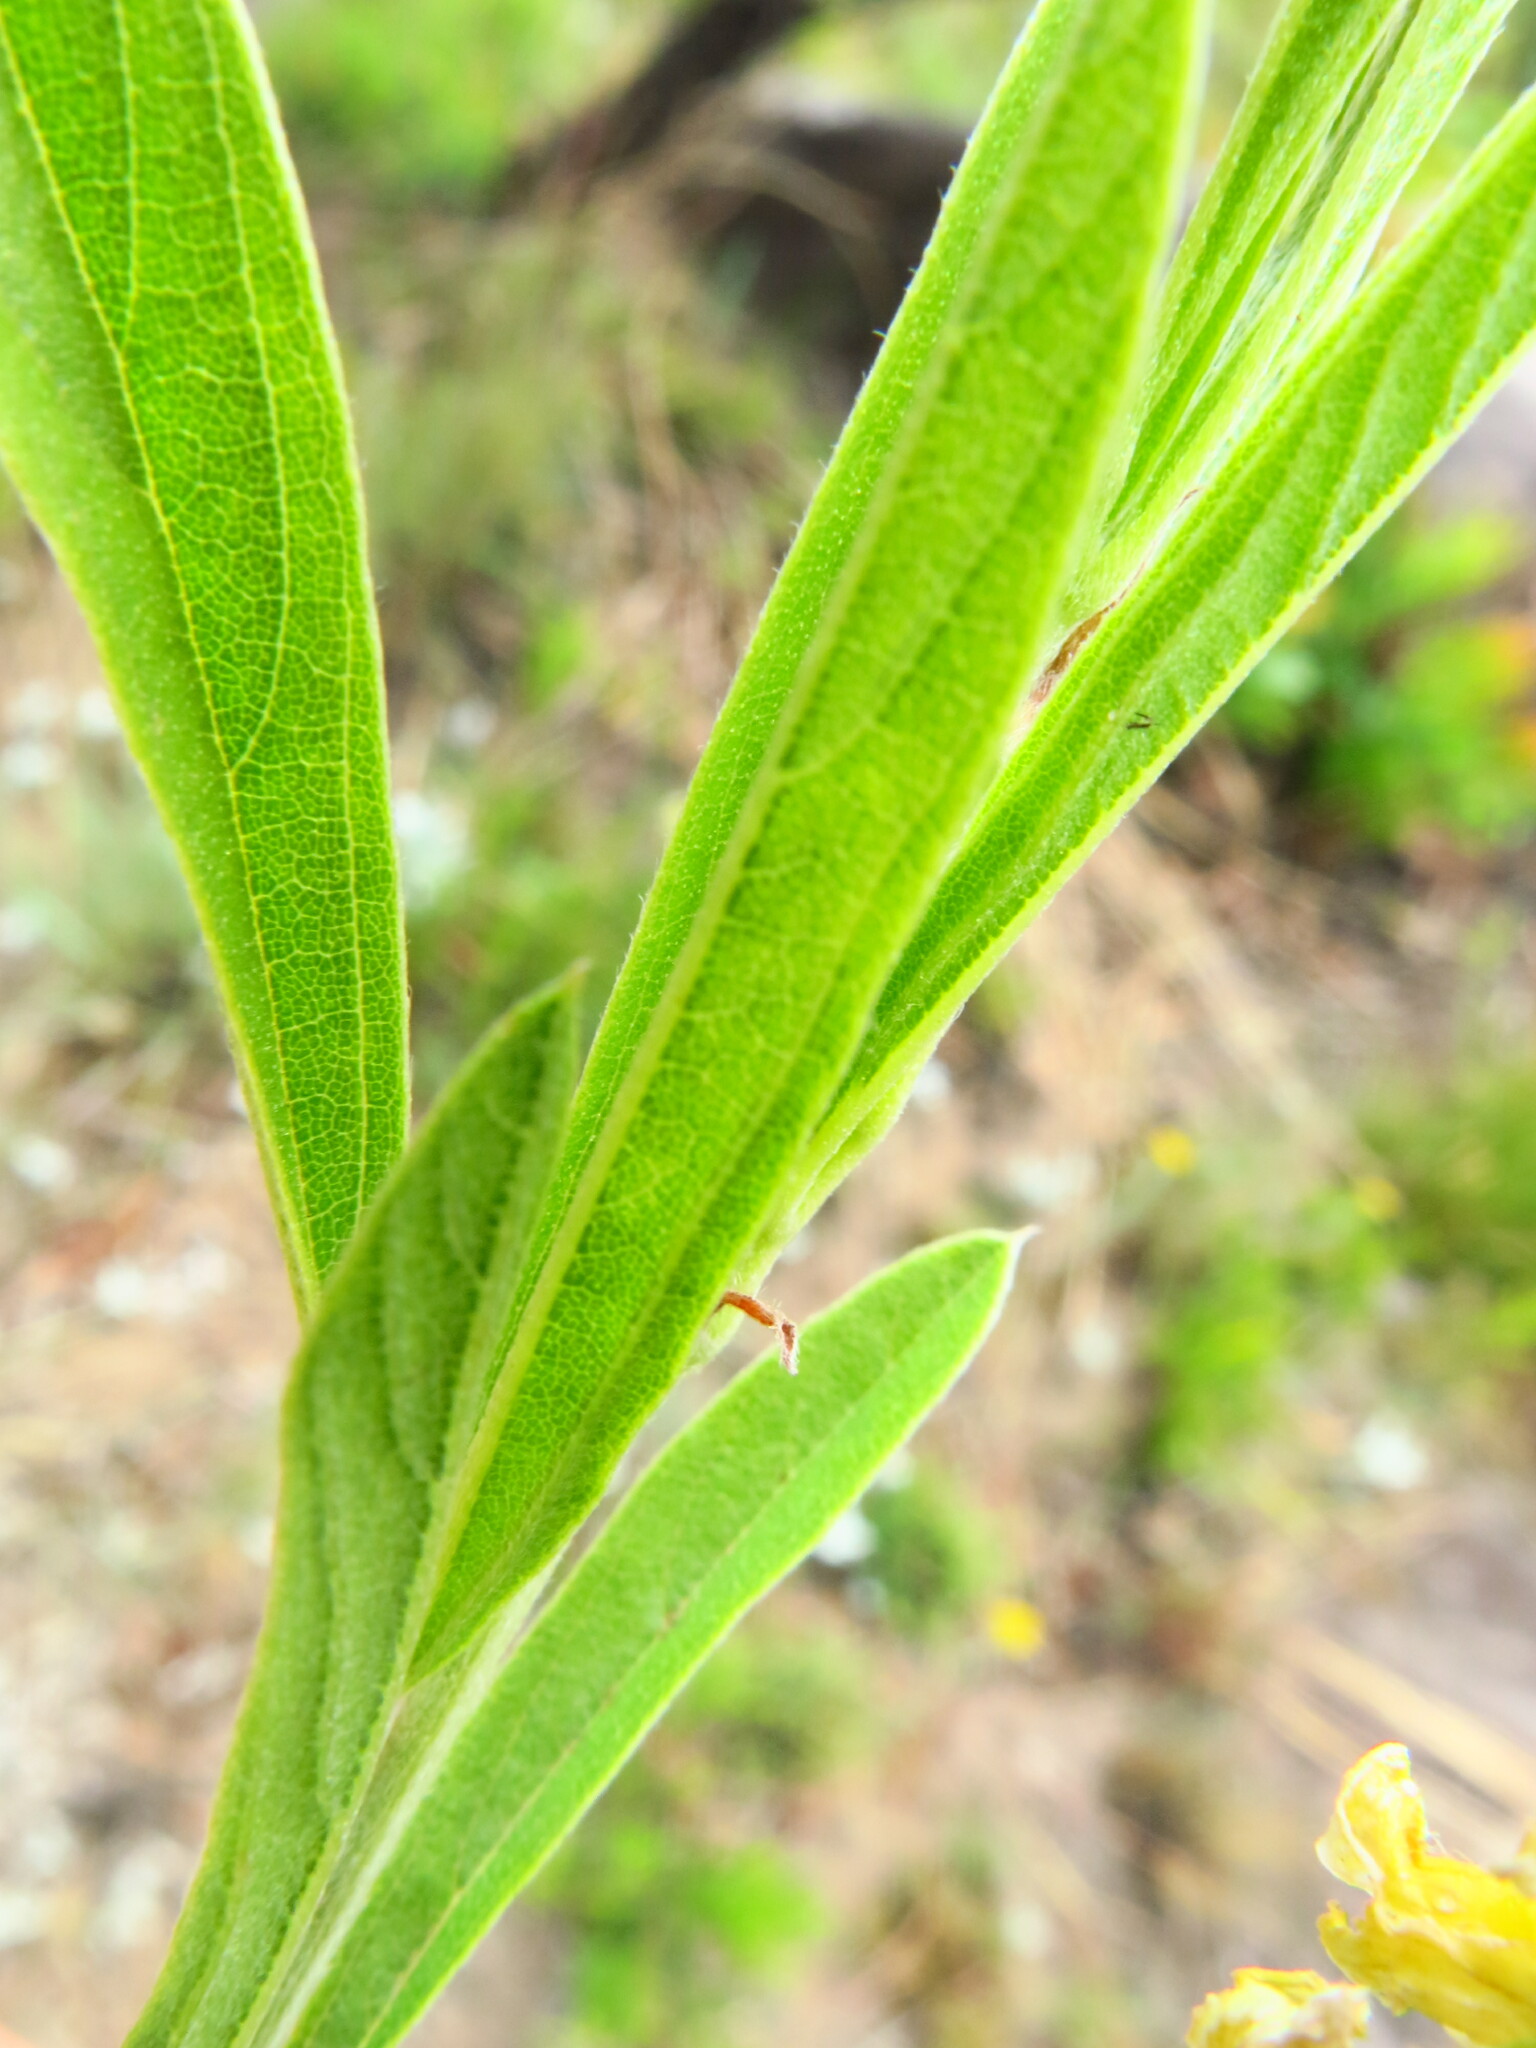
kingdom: Plantae
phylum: Tracheophyta
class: Magnoliopsida
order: Fabales
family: Fabaceae
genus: Eriosema
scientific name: Eriosema kraussianum
